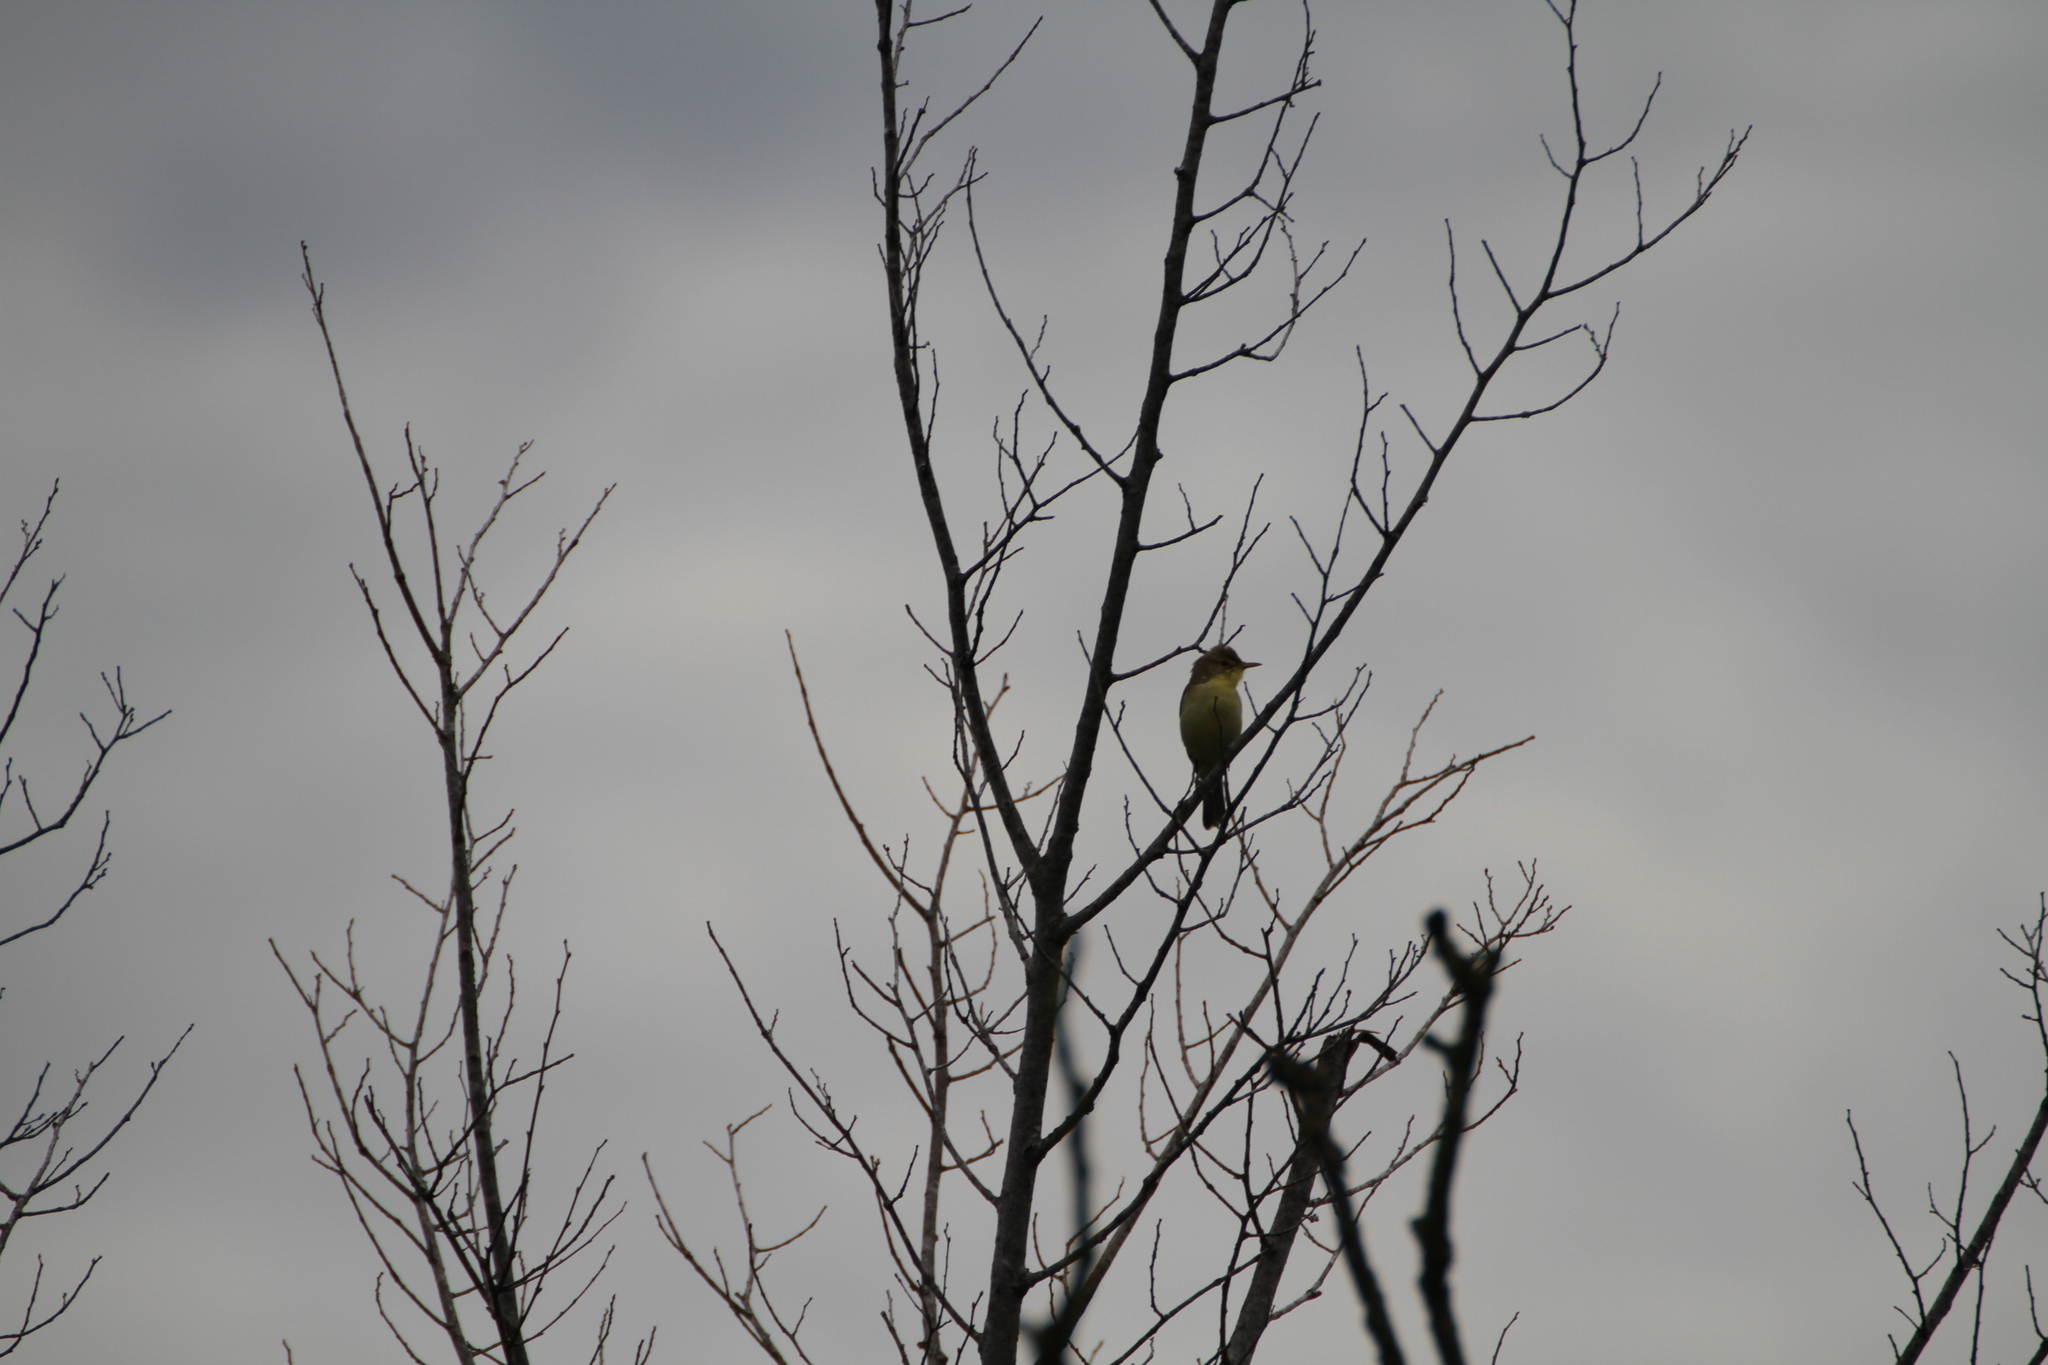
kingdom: Animalia
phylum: Chordata
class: Aves
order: Passeriformes
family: Acrocephalidae
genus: Hippolais
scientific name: Hippolais polyglotta
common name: Melodious warbler
